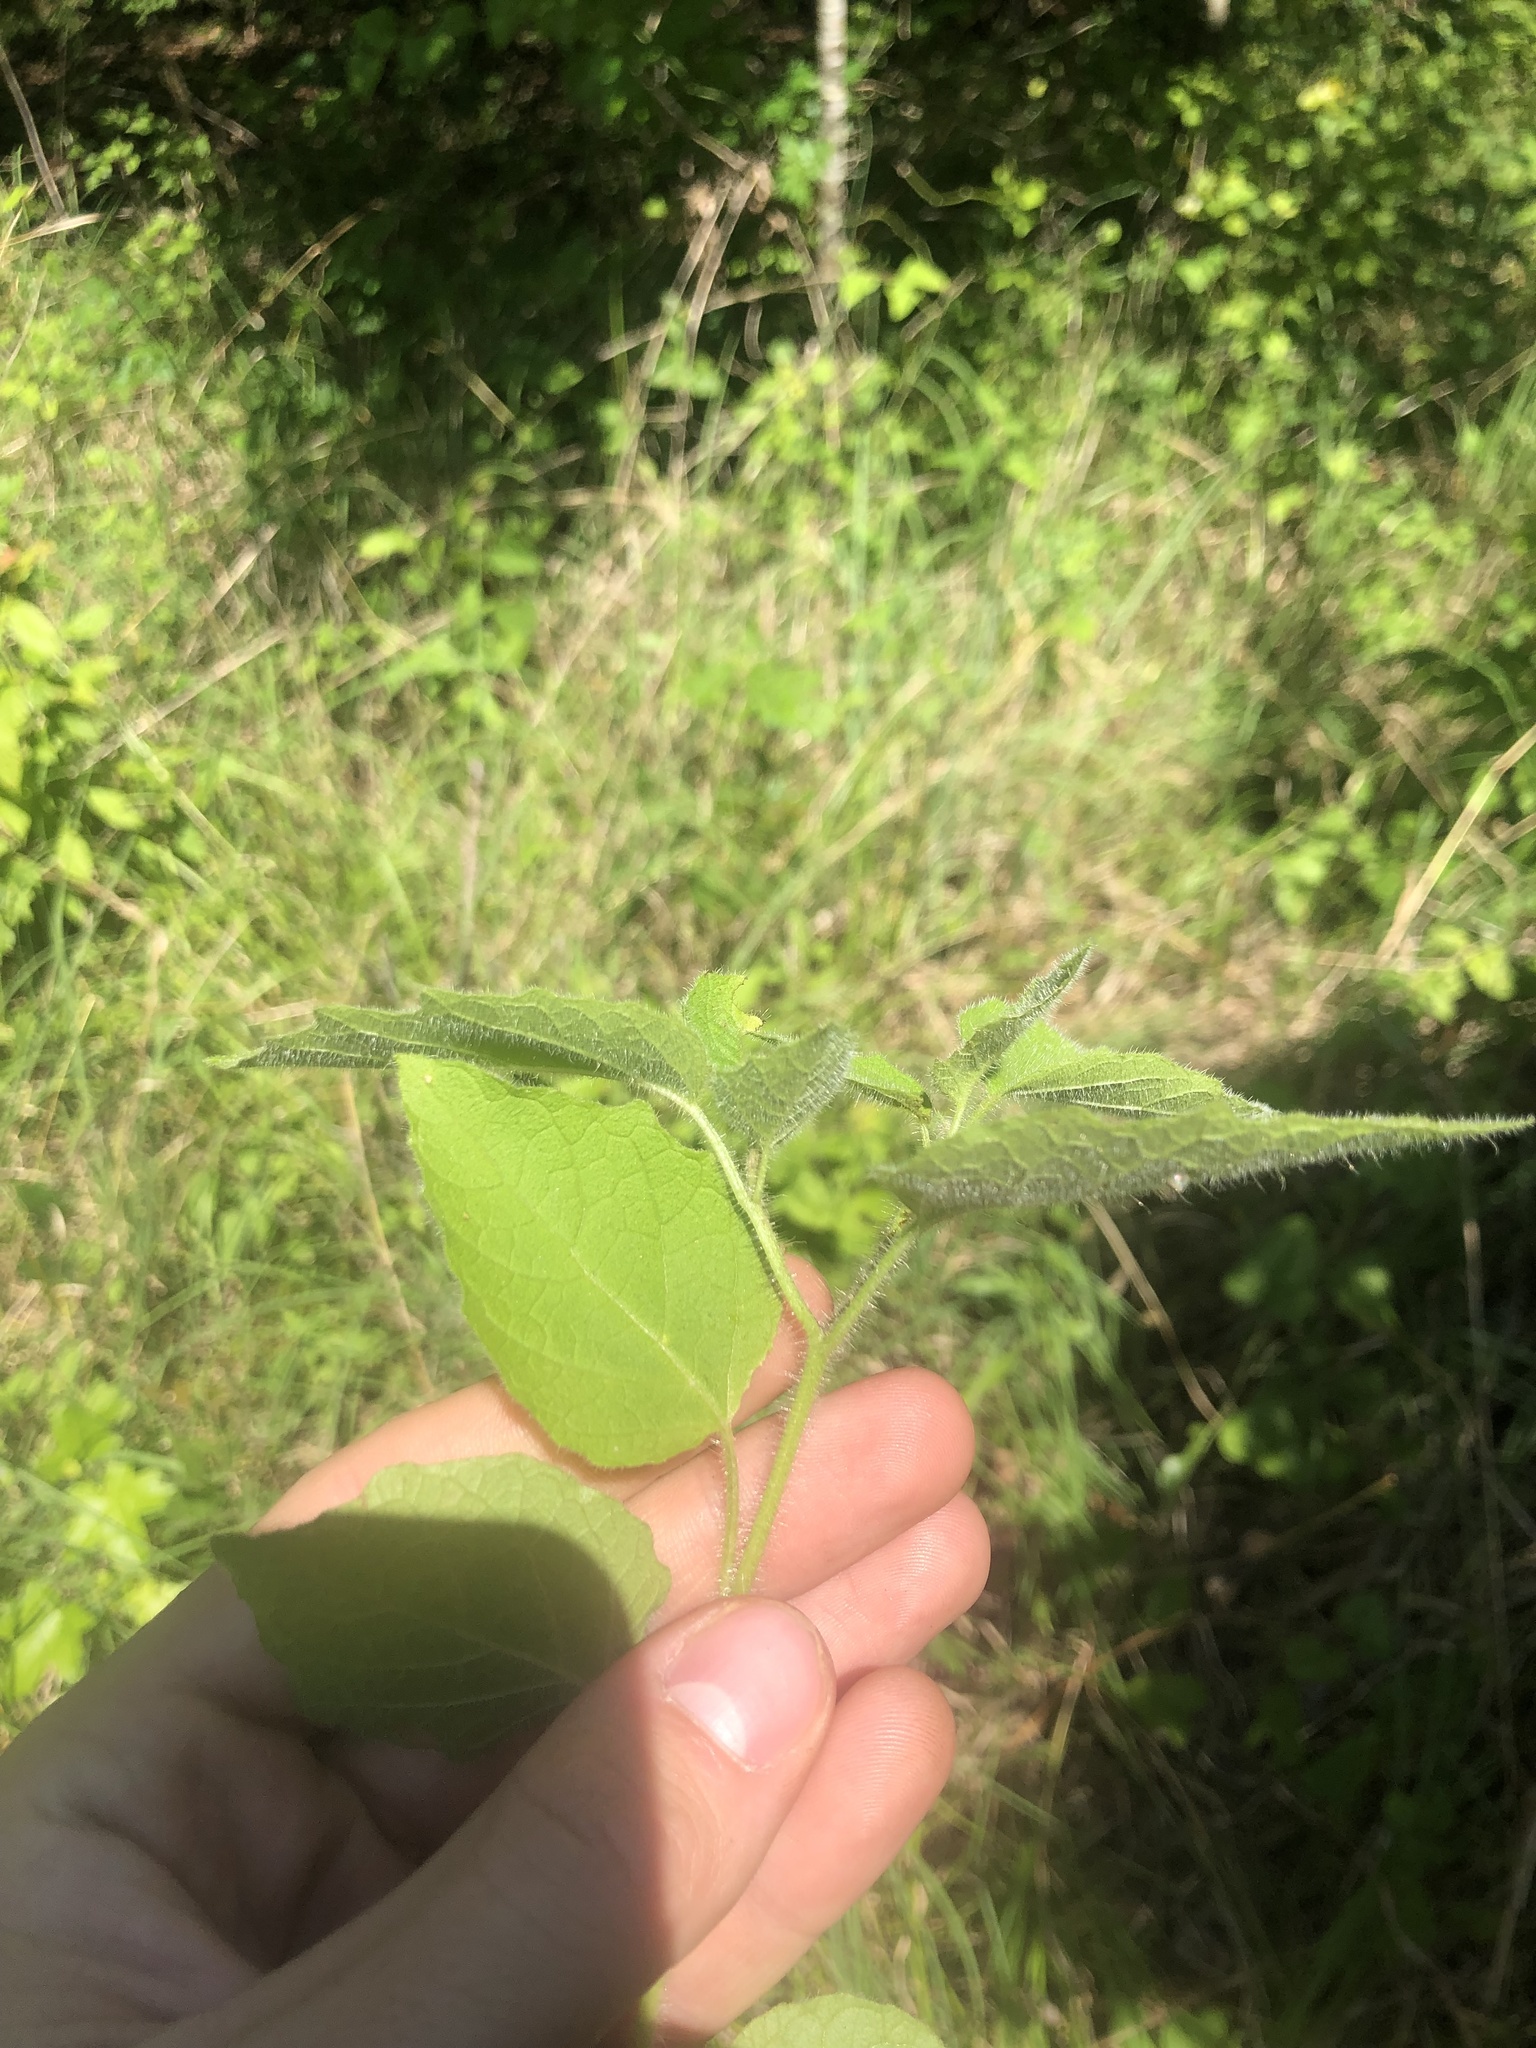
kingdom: Plantae
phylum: Tracheophyta
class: Magnoliopsida
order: Solanales
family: Solanaceae
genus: Physalis
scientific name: Physalis heterophylla
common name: Clammy ground-cherry
